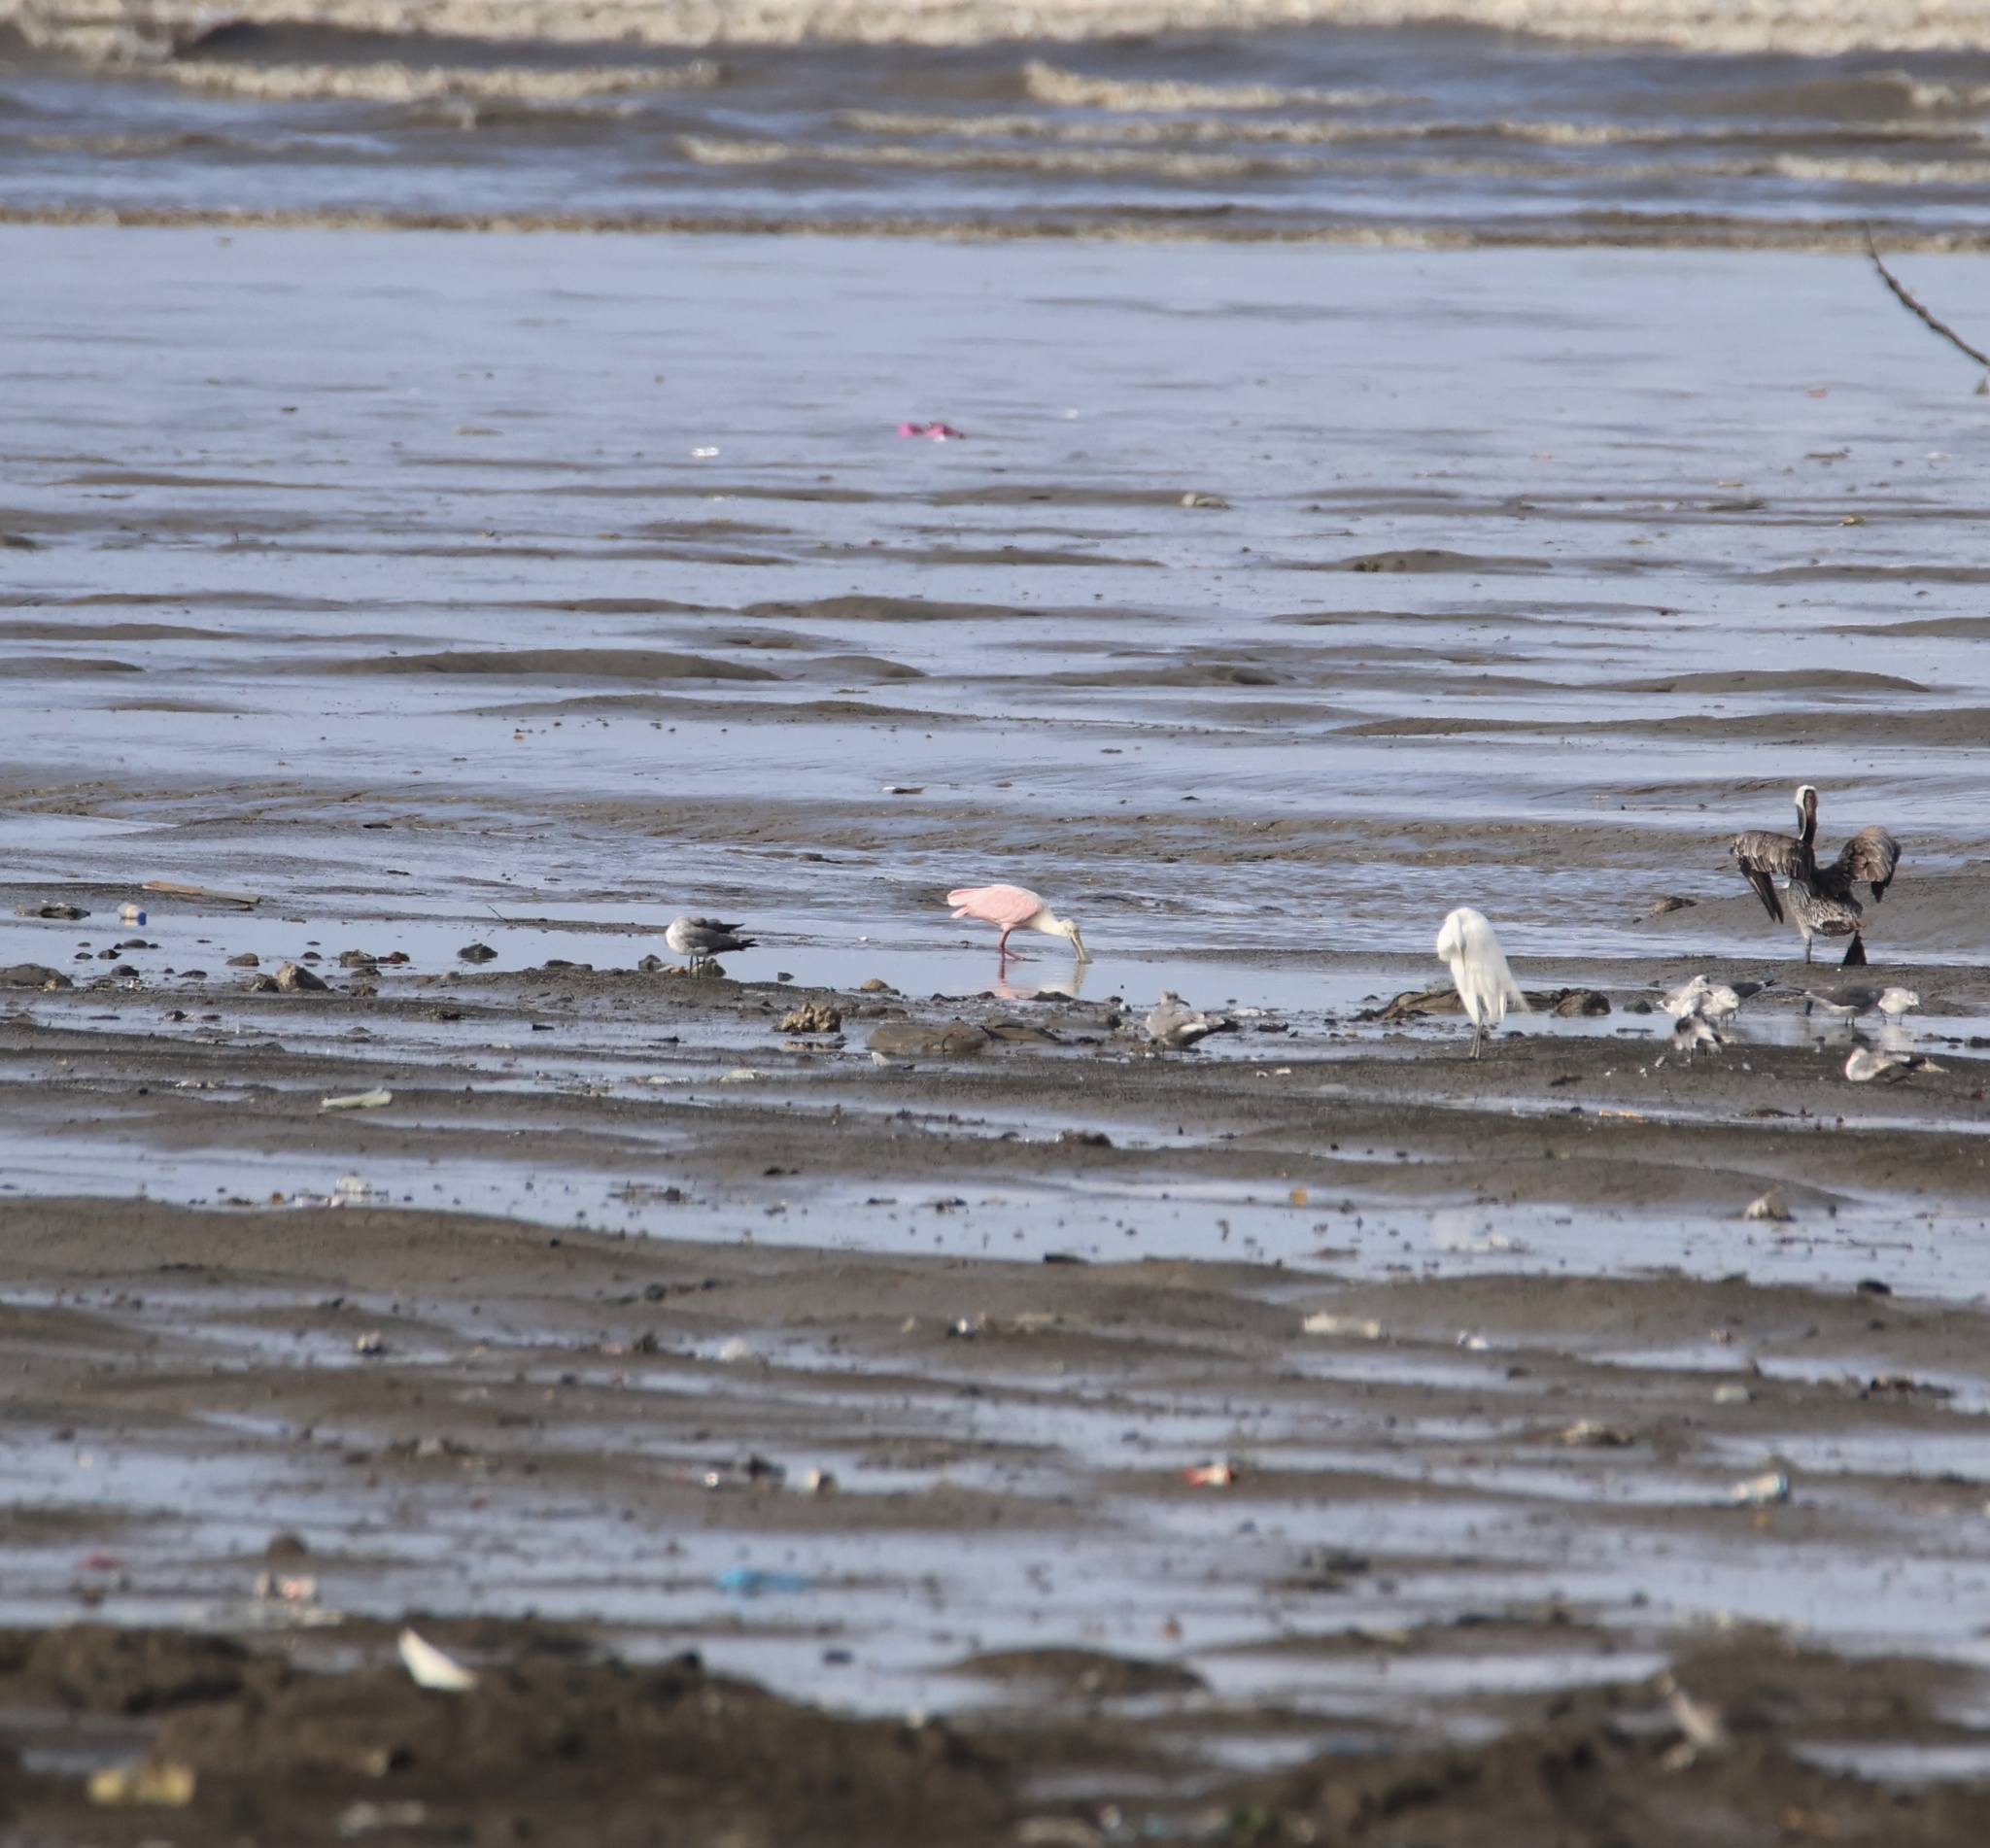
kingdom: Animalia
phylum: Chordata
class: Aves
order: Pelecaniformes
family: Threskiornithidae
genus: Platalea
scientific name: Platalea ajaja
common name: Roseate spoonbill
